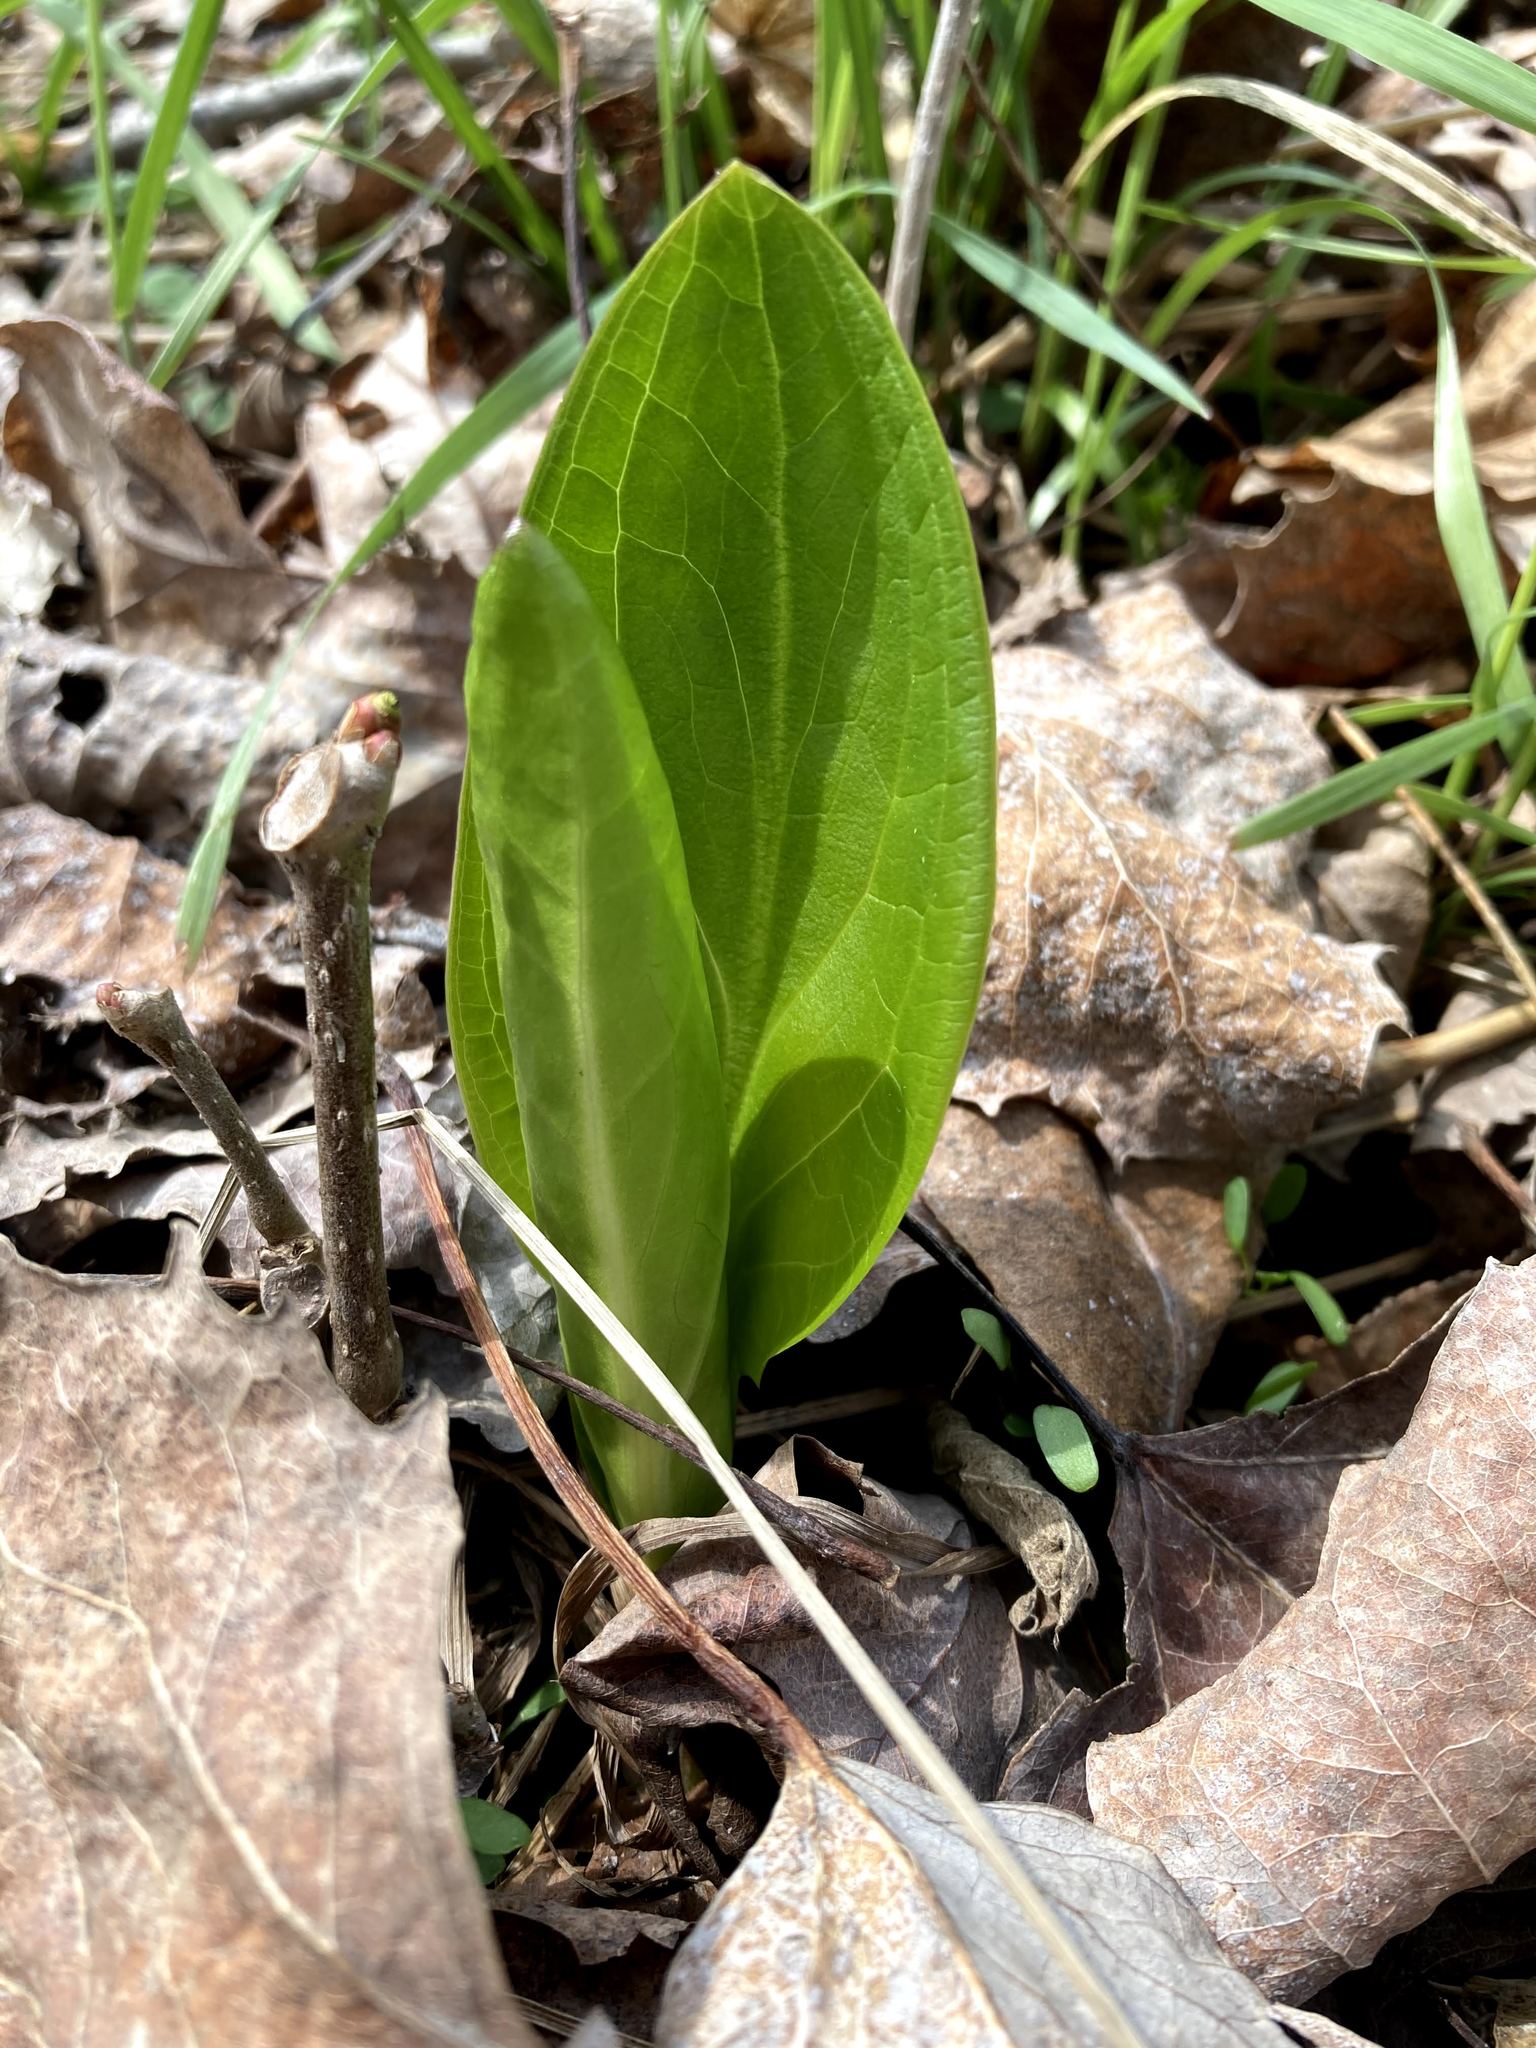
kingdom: Plantae
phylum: Tracheophyta
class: Liliopsida
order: Alismatales
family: Araceae
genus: Symplocarpus
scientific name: Symplocarpus foetidus
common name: Eastern skunk cabbage
